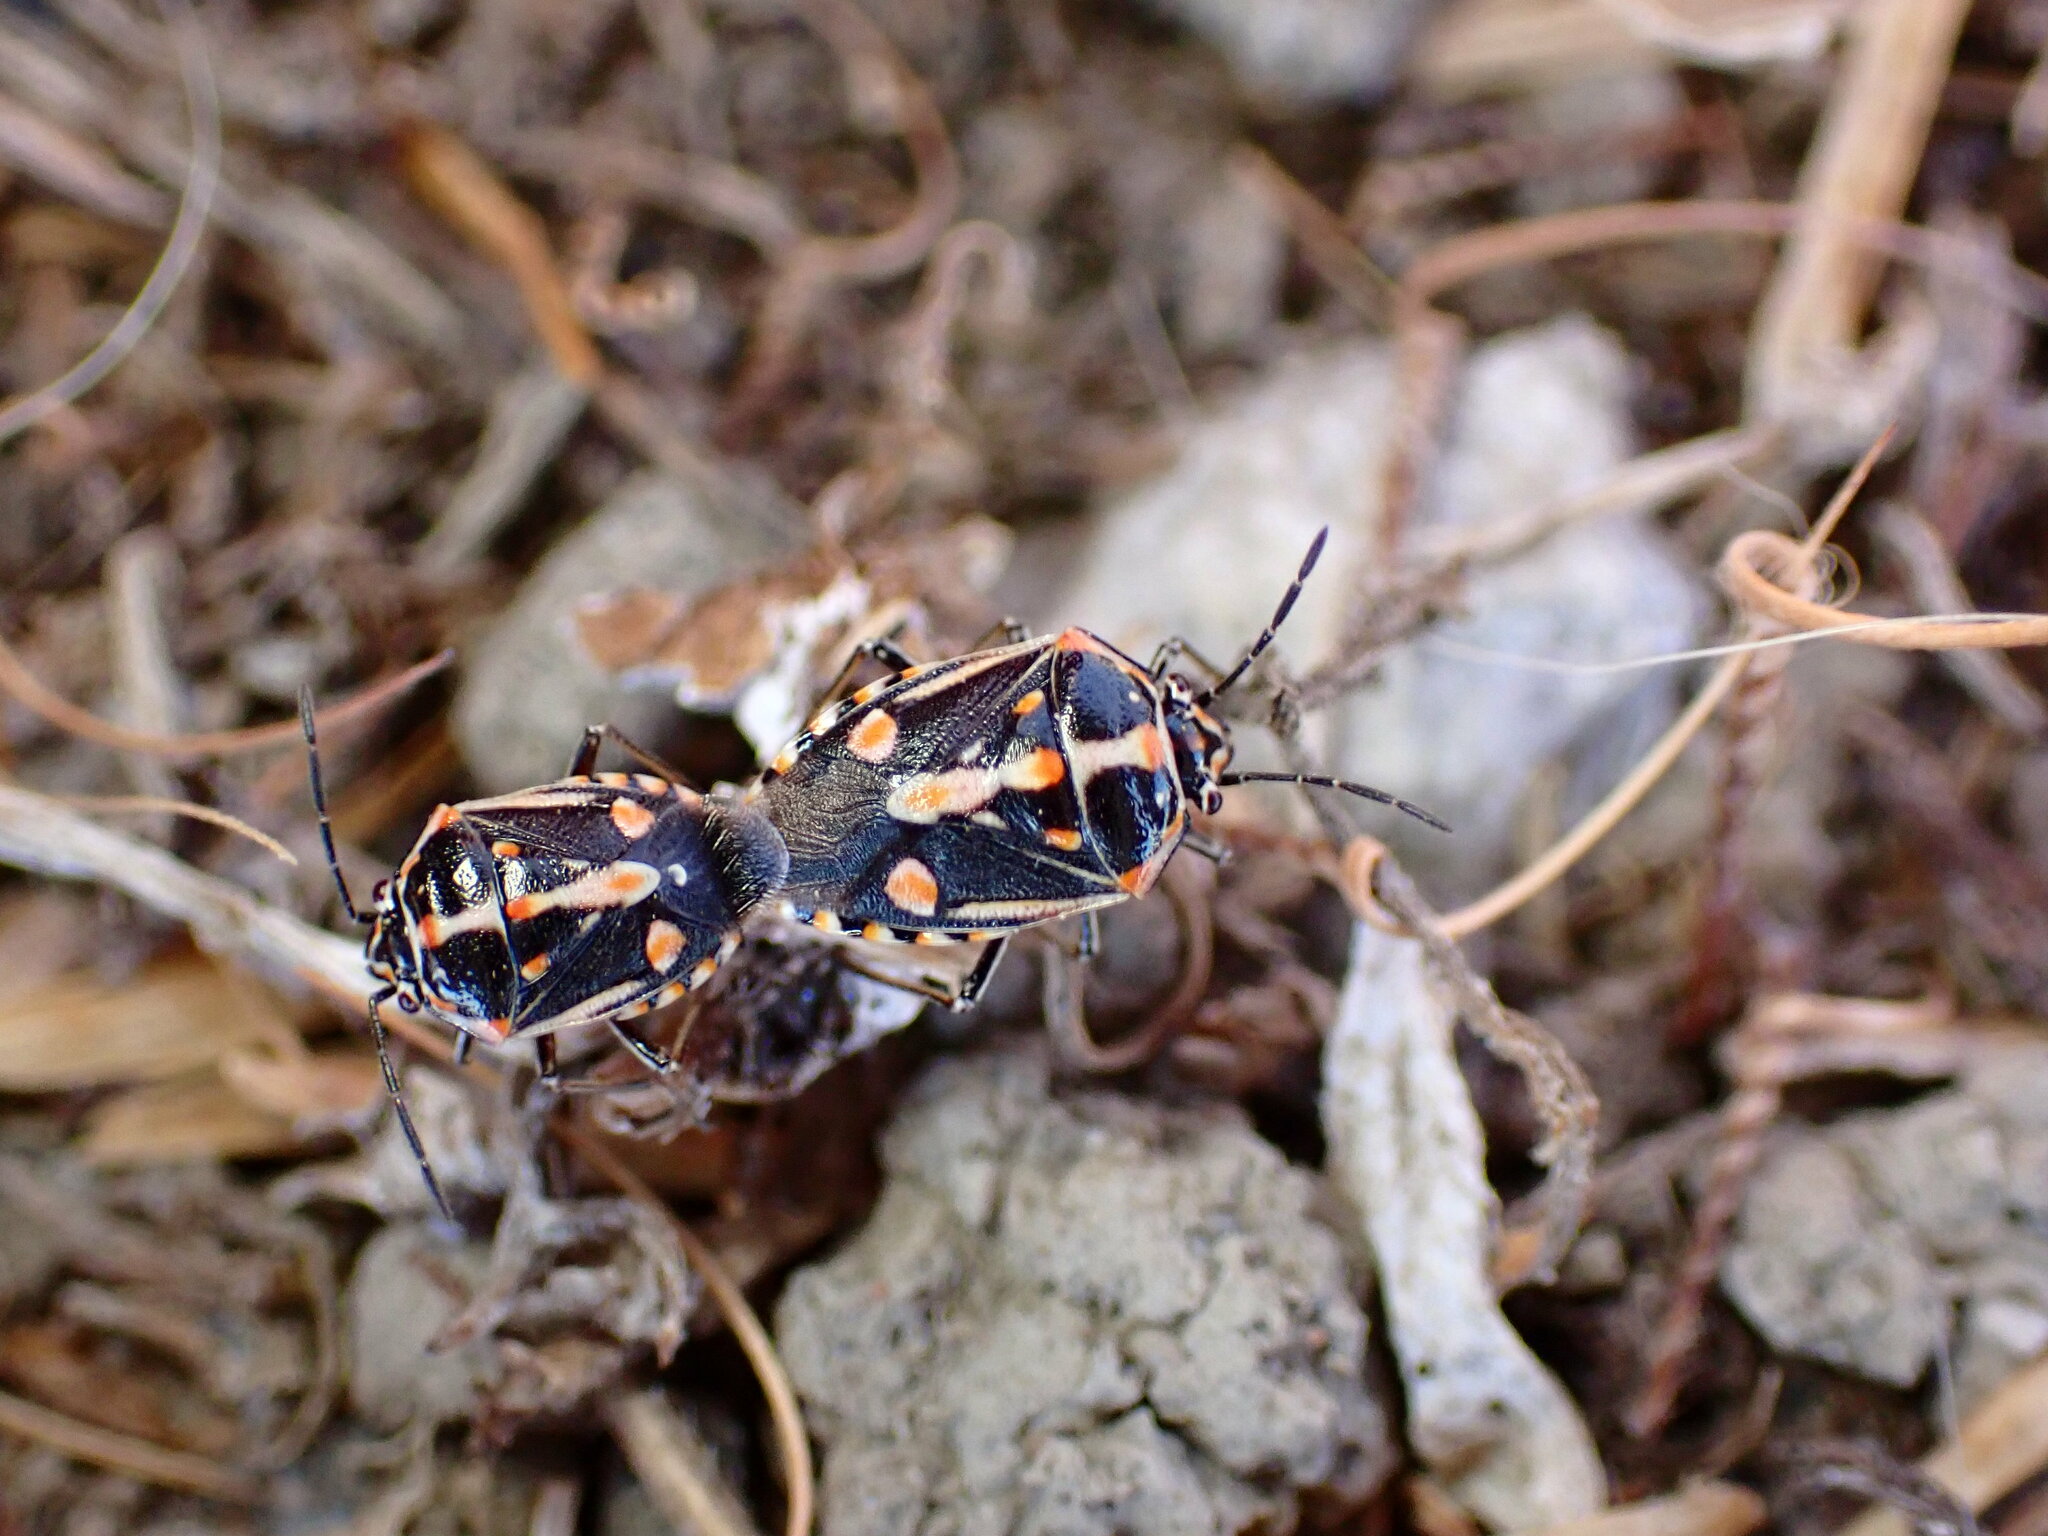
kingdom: Animalia
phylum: Arthropoda
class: Insecta
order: Hemiptera
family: Pentatomidae
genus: Bagrada
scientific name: Bagrada hilaris
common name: Bagrada bug
